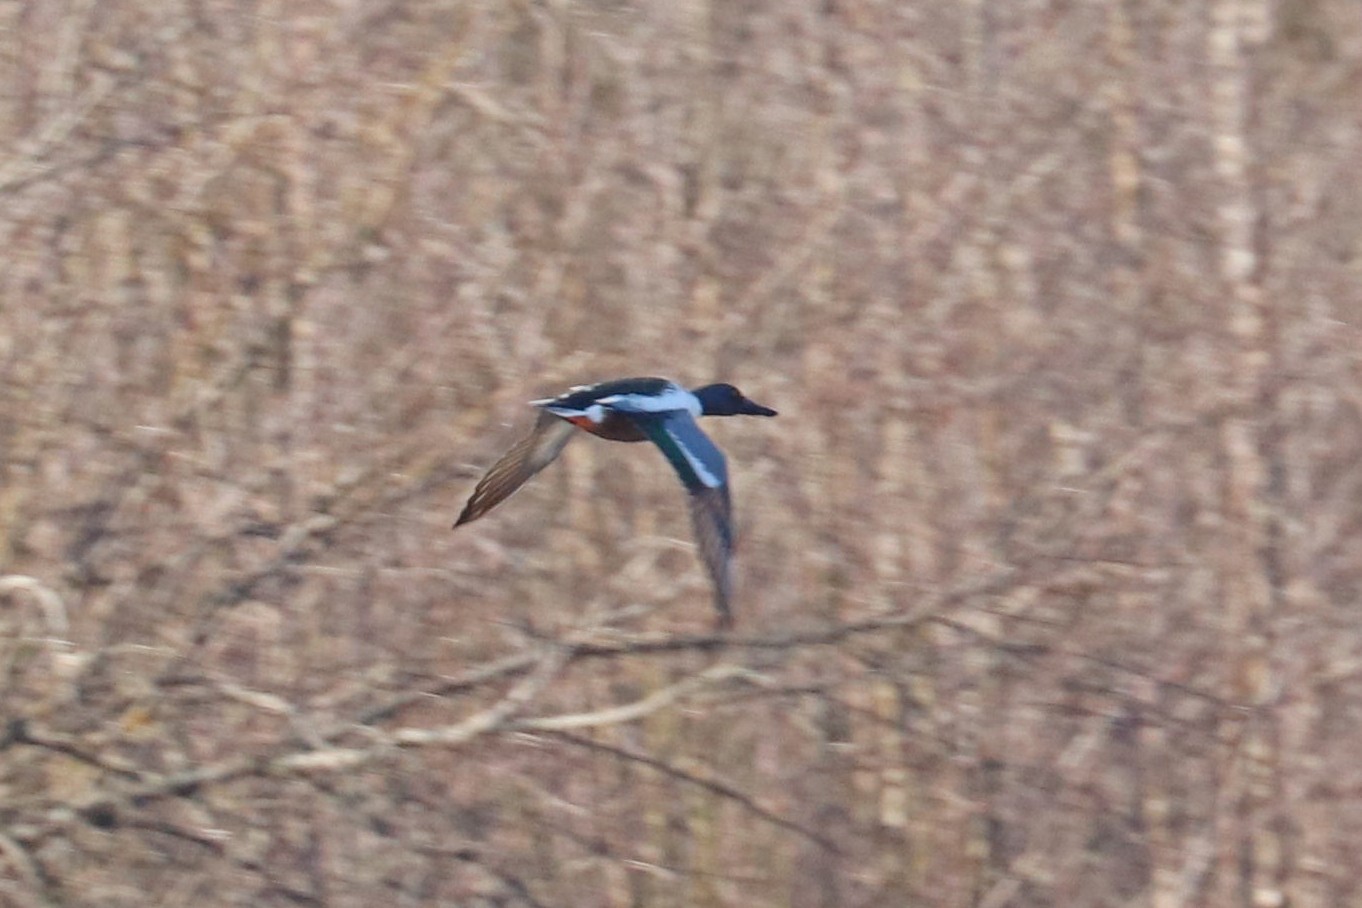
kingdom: Animalia
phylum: Chordata
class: Aves
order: Anseriformes
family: Anatidae
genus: Spatula
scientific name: Spatula clypeata
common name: Northern shoveler
